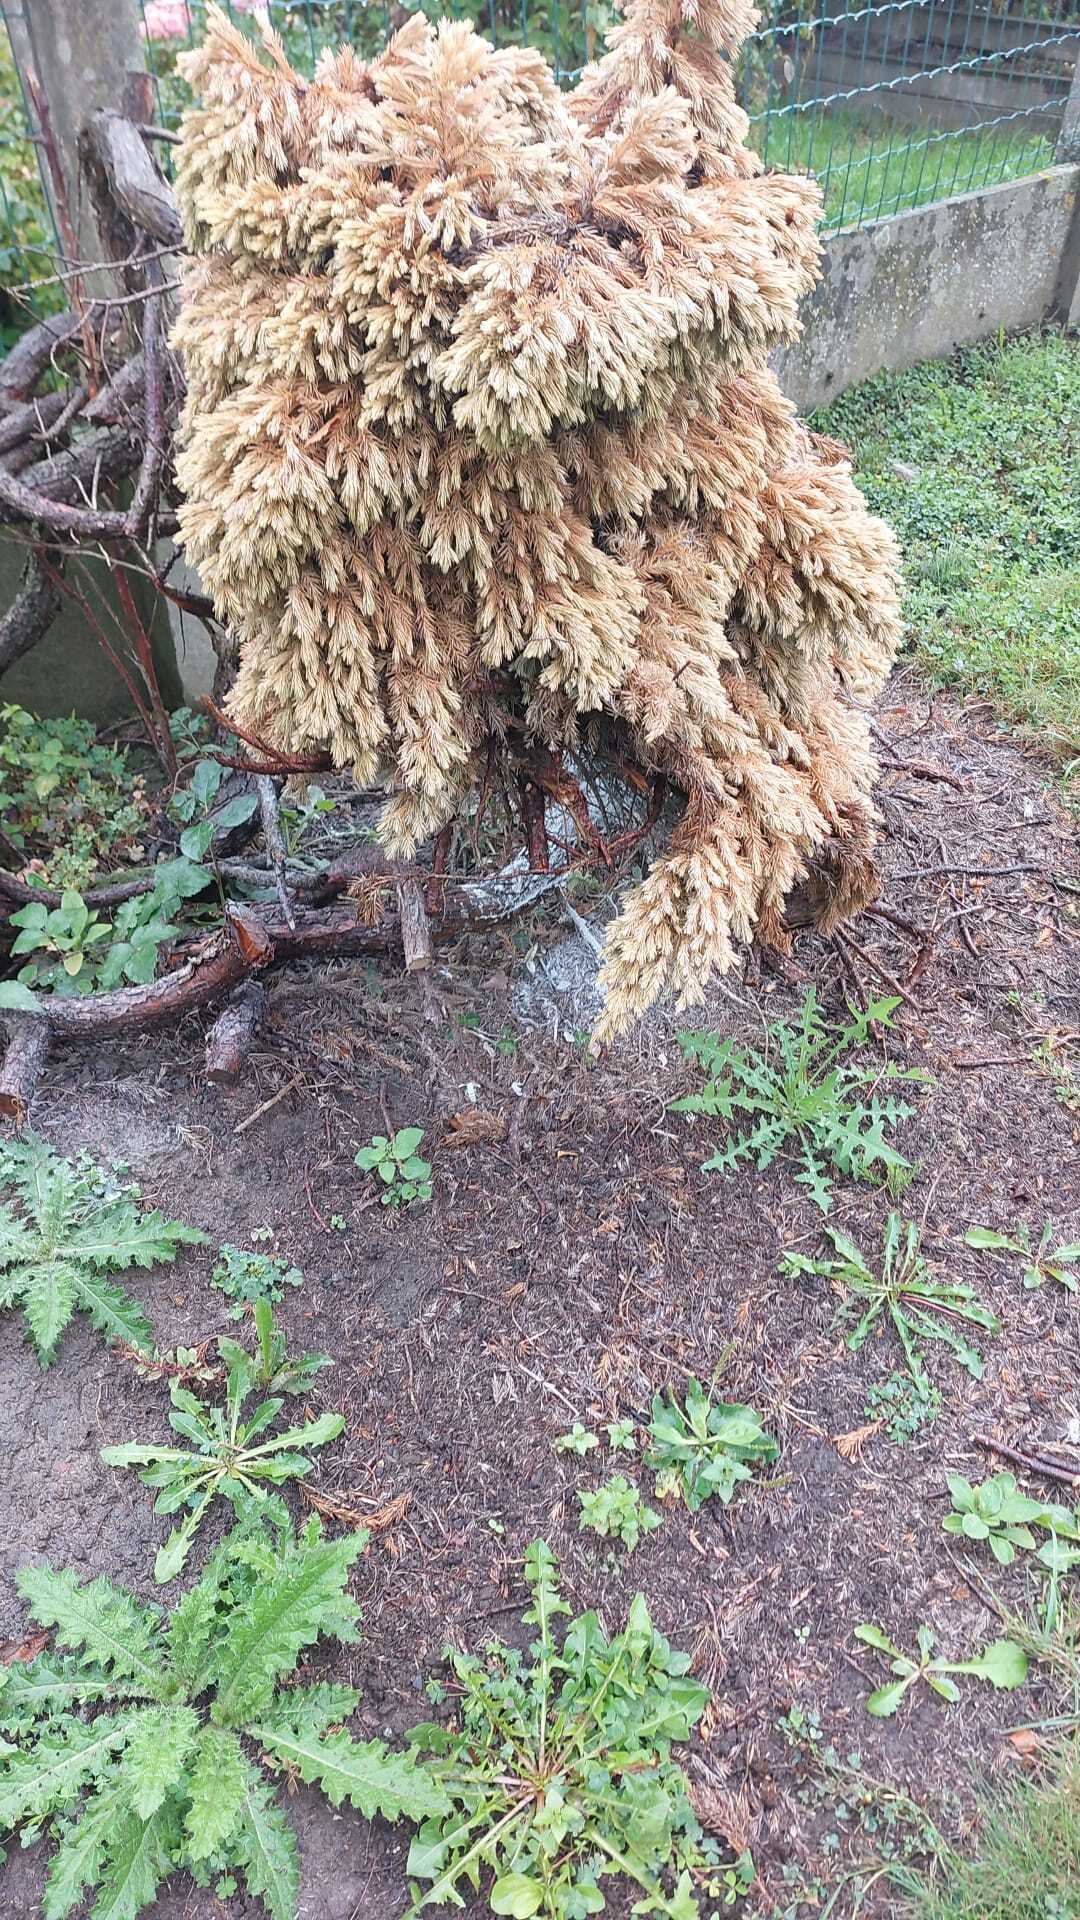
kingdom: Animalia
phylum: Arthropoda
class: Insecta
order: Hymenoptera
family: Vespidae
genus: Vespa
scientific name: Vespa velutina
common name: Asian hornet
